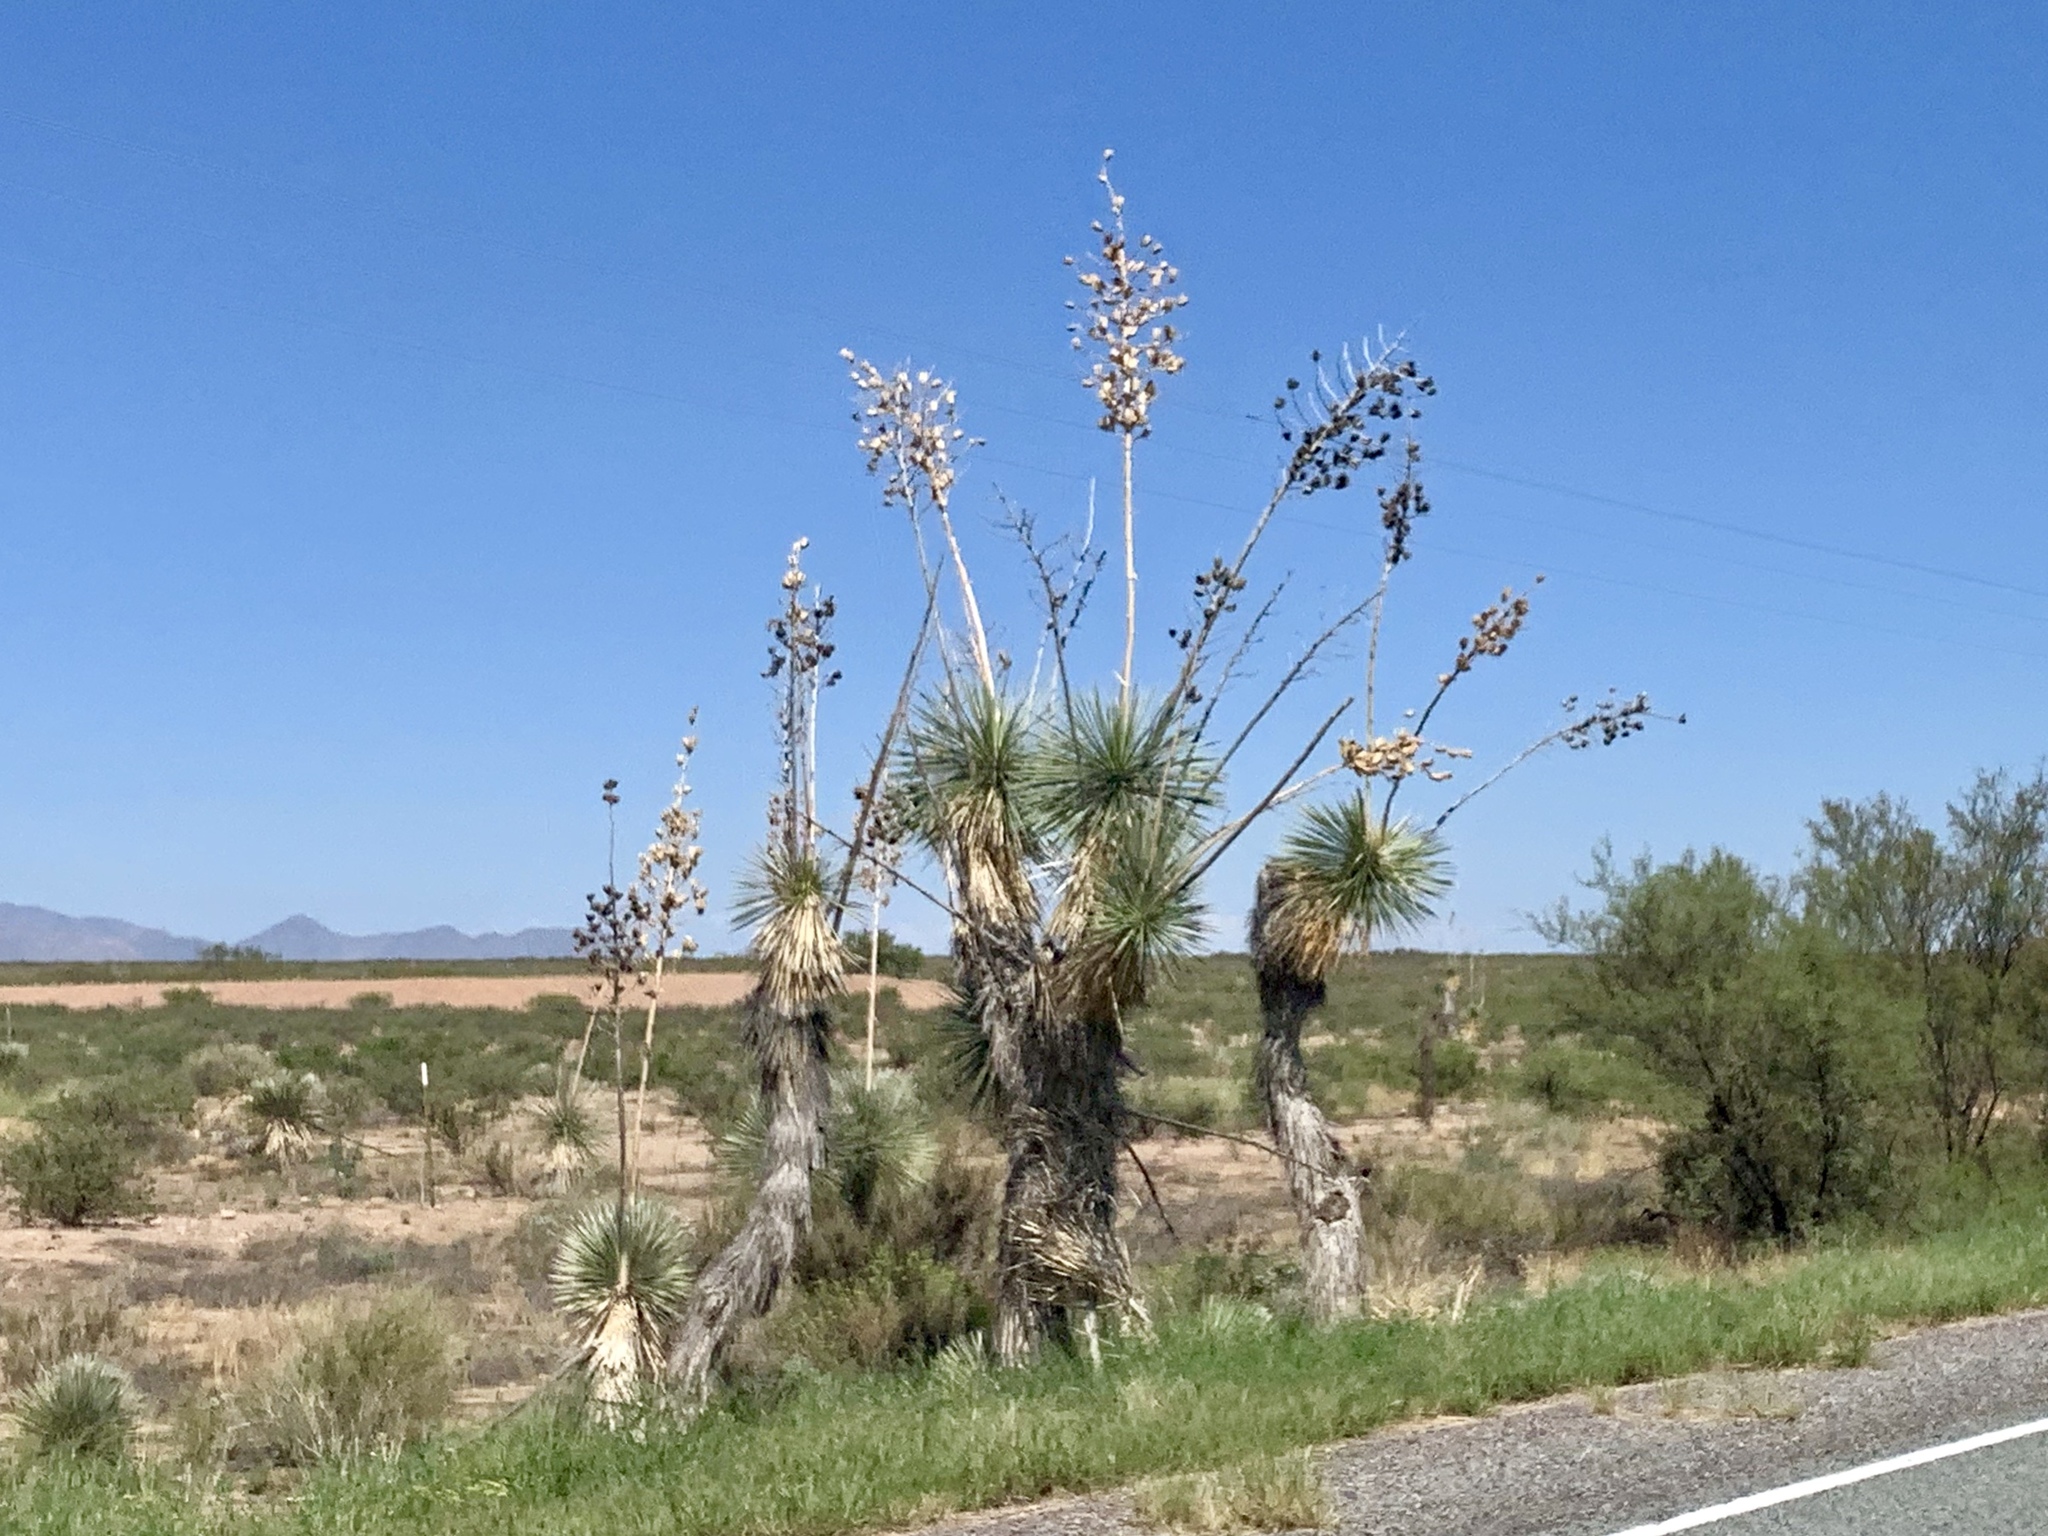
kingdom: Plantae
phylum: Tracheophyta
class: Liliopsida
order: Asparagales
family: Asparagaceae
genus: Yucca
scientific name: Yucca elata
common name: Palmella
